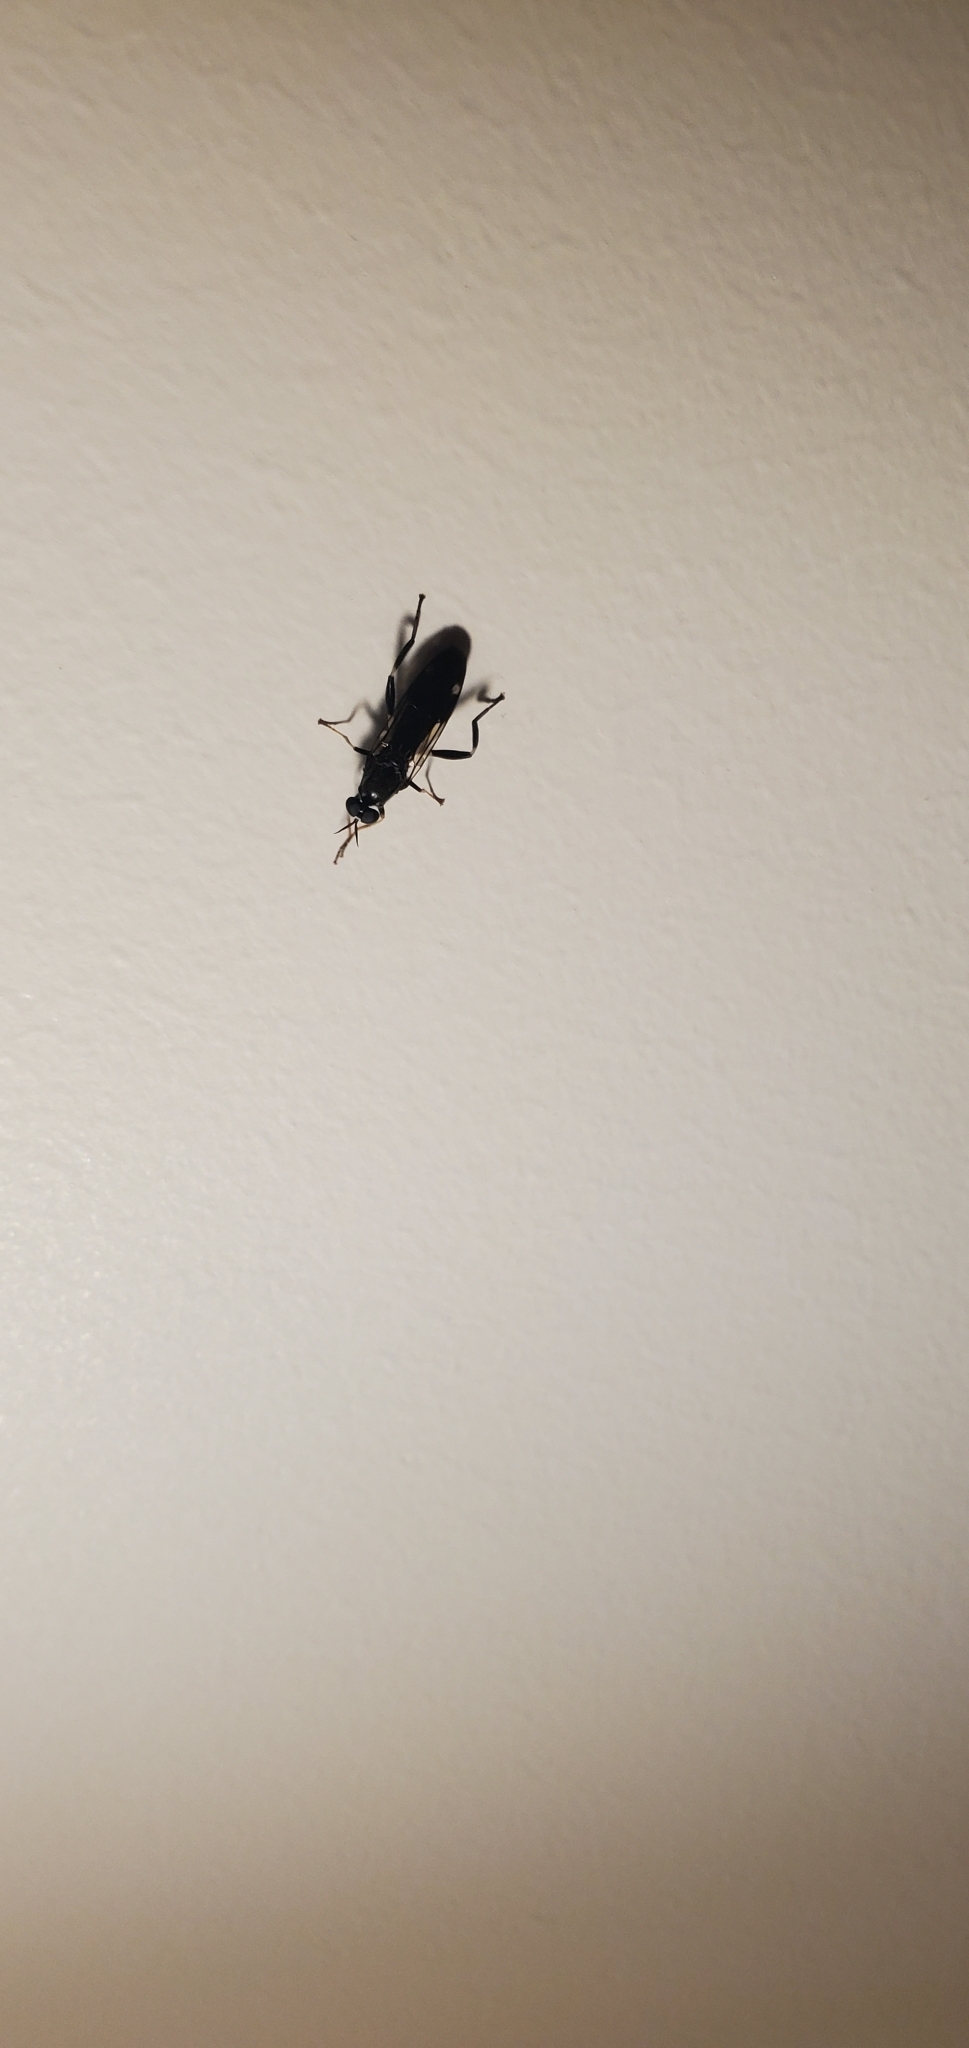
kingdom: Animalia
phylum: Arthropoda
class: Insecta
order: Diptera
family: Stratiomyidae
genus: Exaireta
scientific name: Exaireta spinigera
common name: Blue soldier fly
